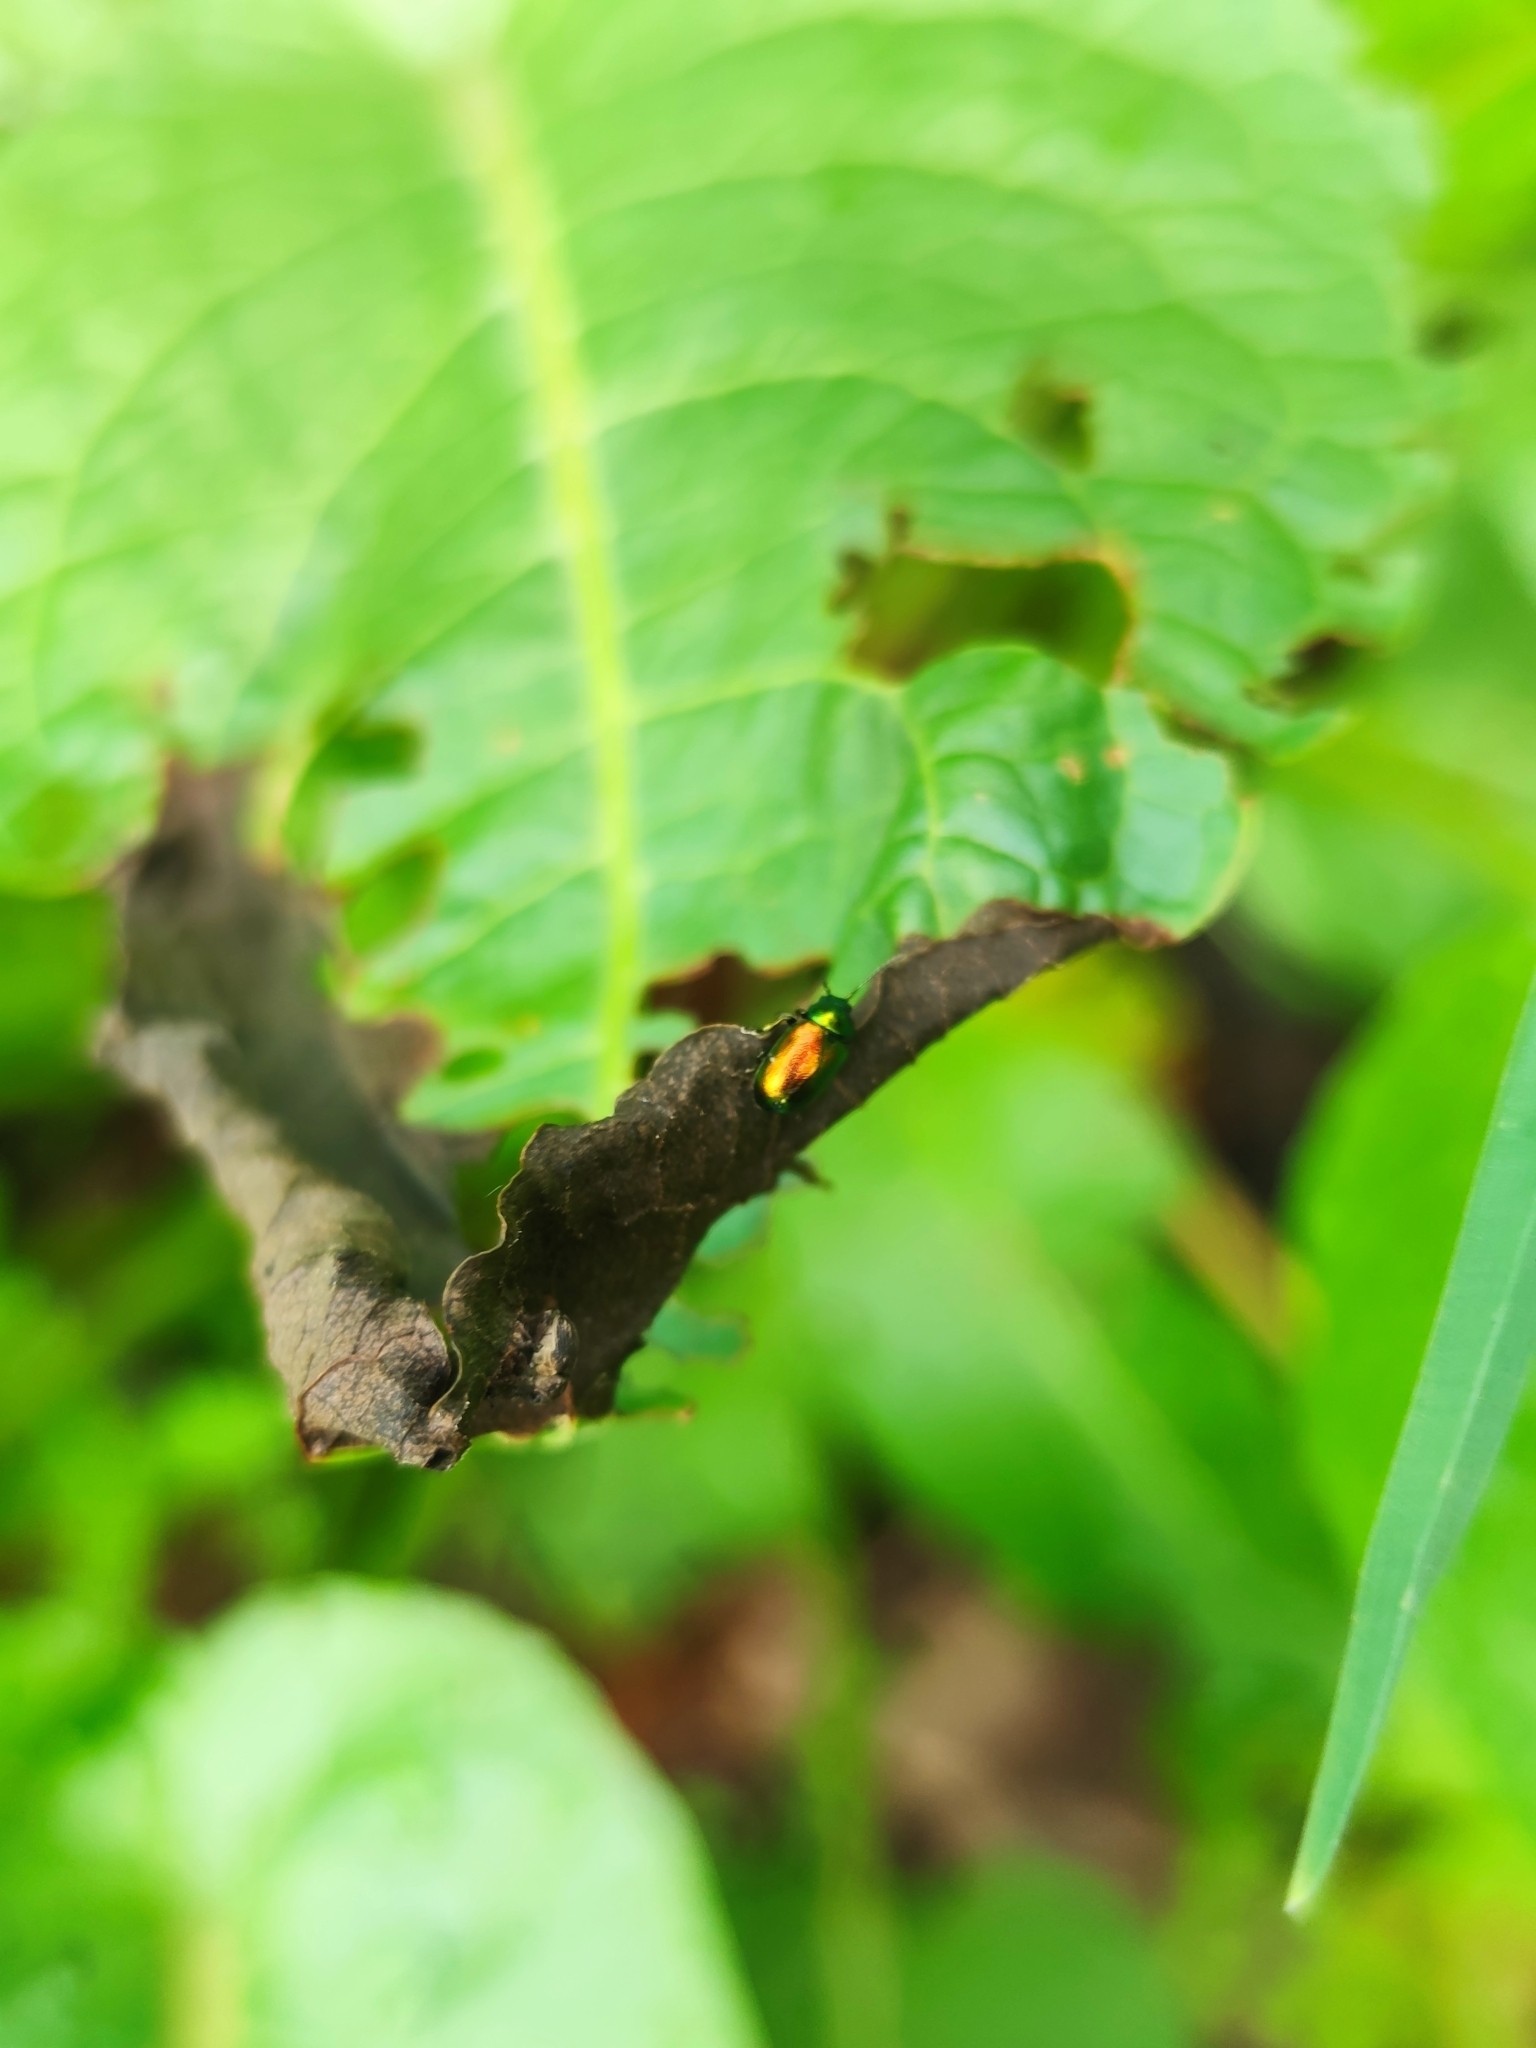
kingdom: Animalia
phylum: Arthropoda
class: Insecta
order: Coleoptera
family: Chrysomelidae
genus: Gastrophysa
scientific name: Gastrophysa viridula
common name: Green dock beetle
